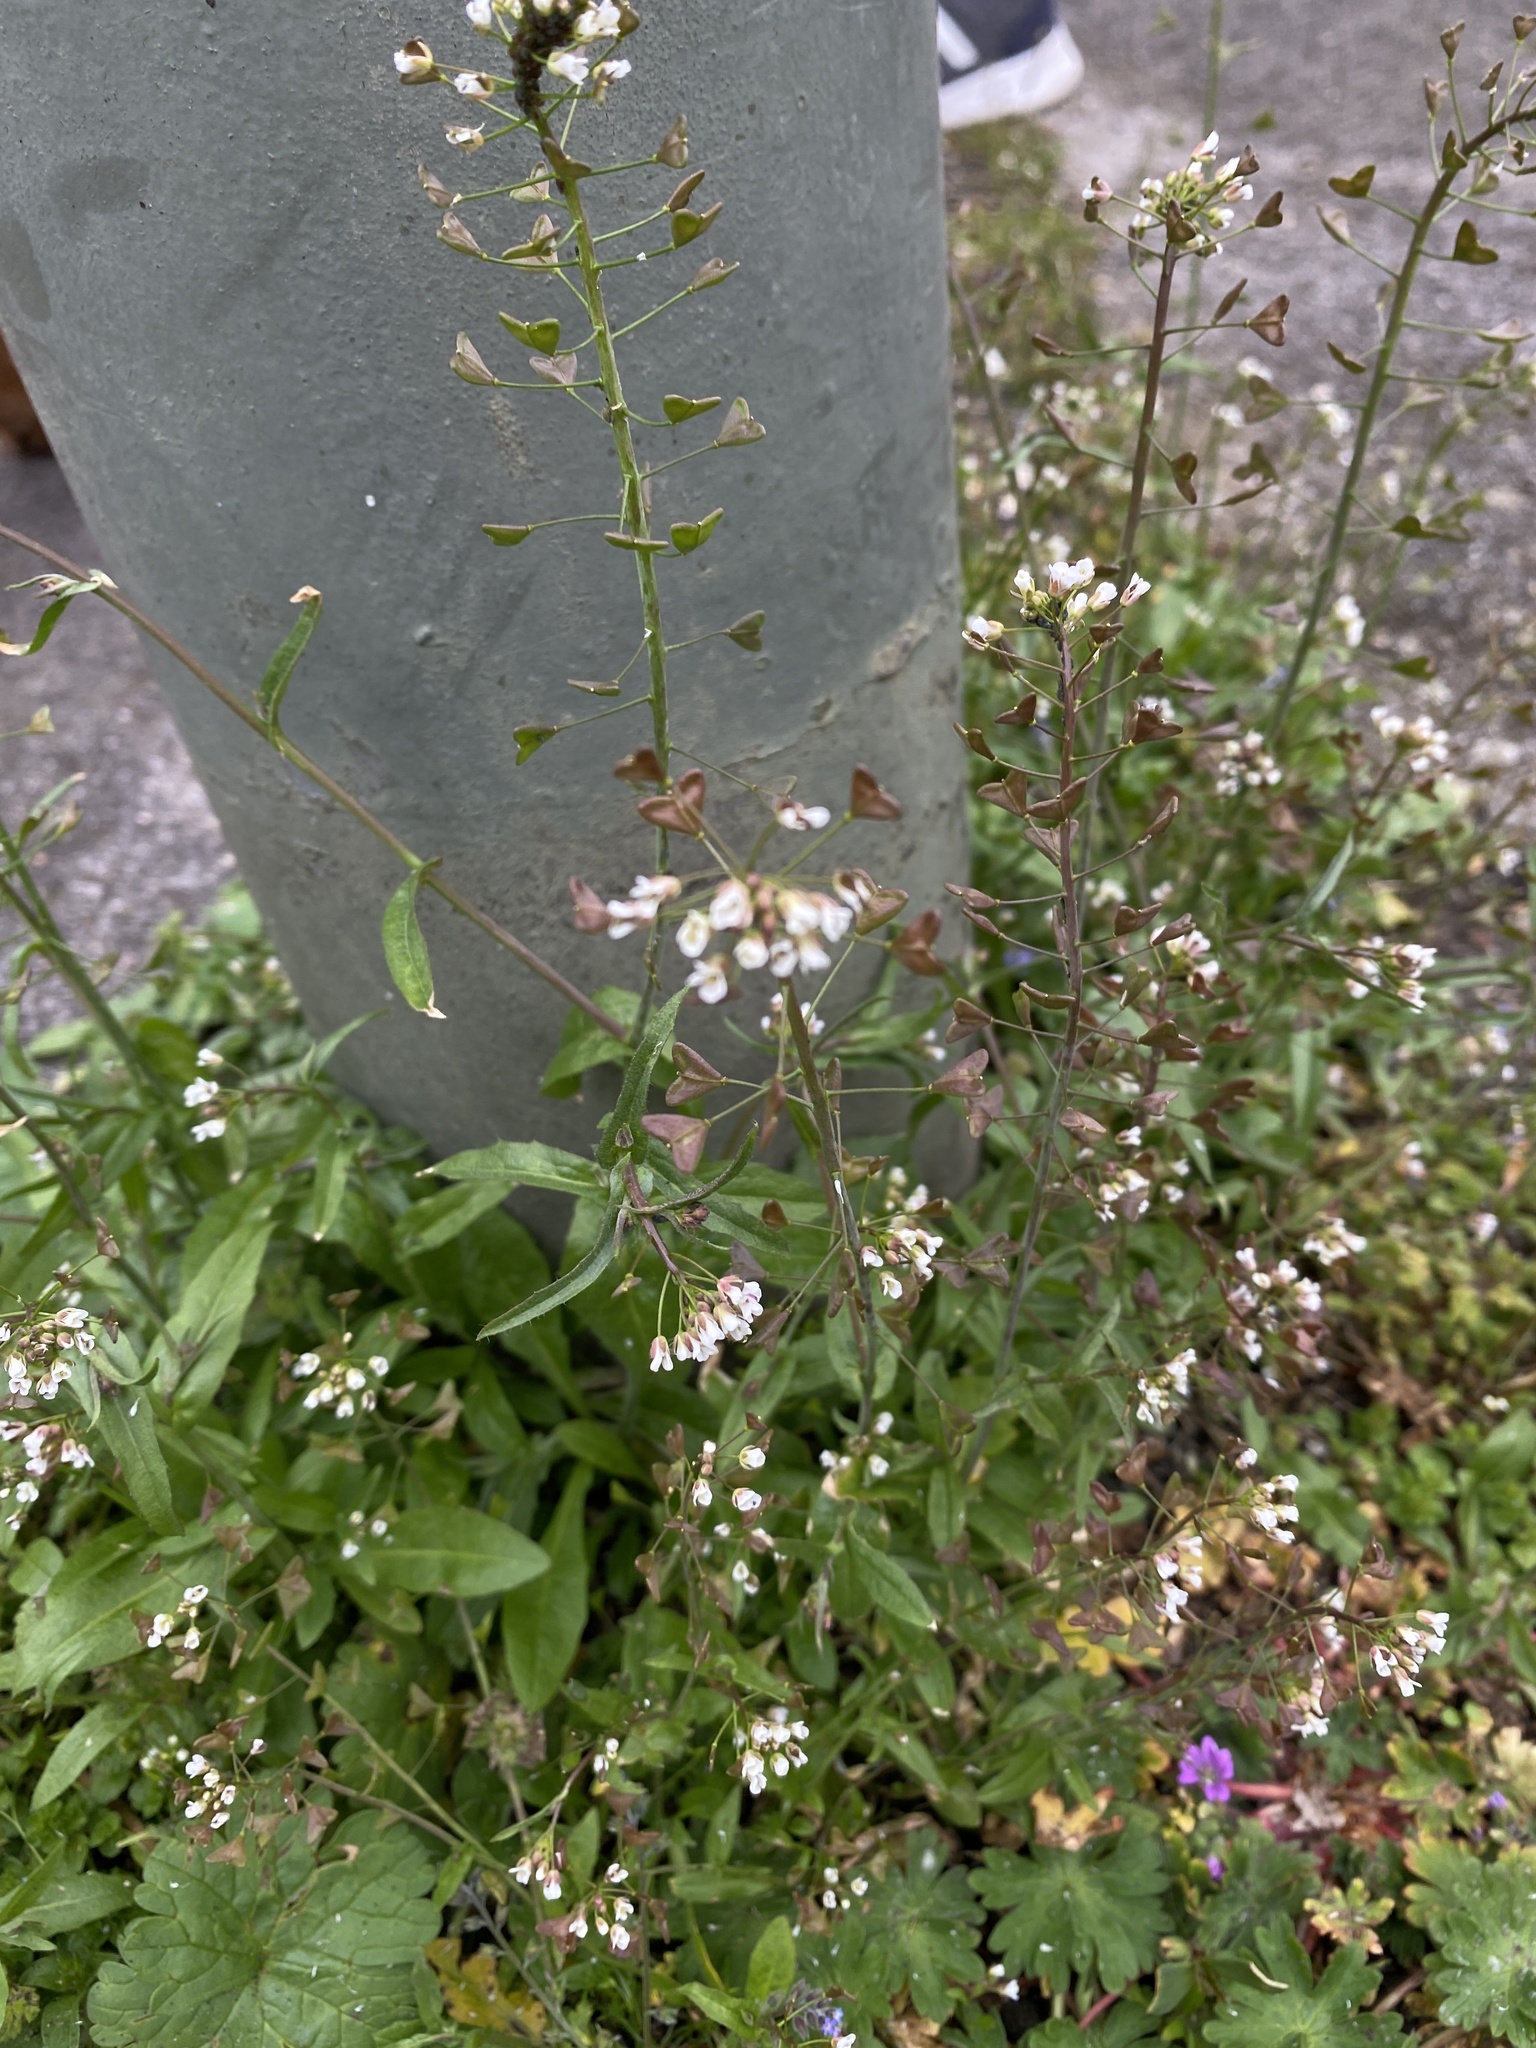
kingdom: Plantae
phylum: Tracheophyta
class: Magnoliopsida
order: Brassicales
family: Brassicaceae
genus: Capsella
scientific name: Capsella bursa-pastoris
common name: Shepherd's purse
